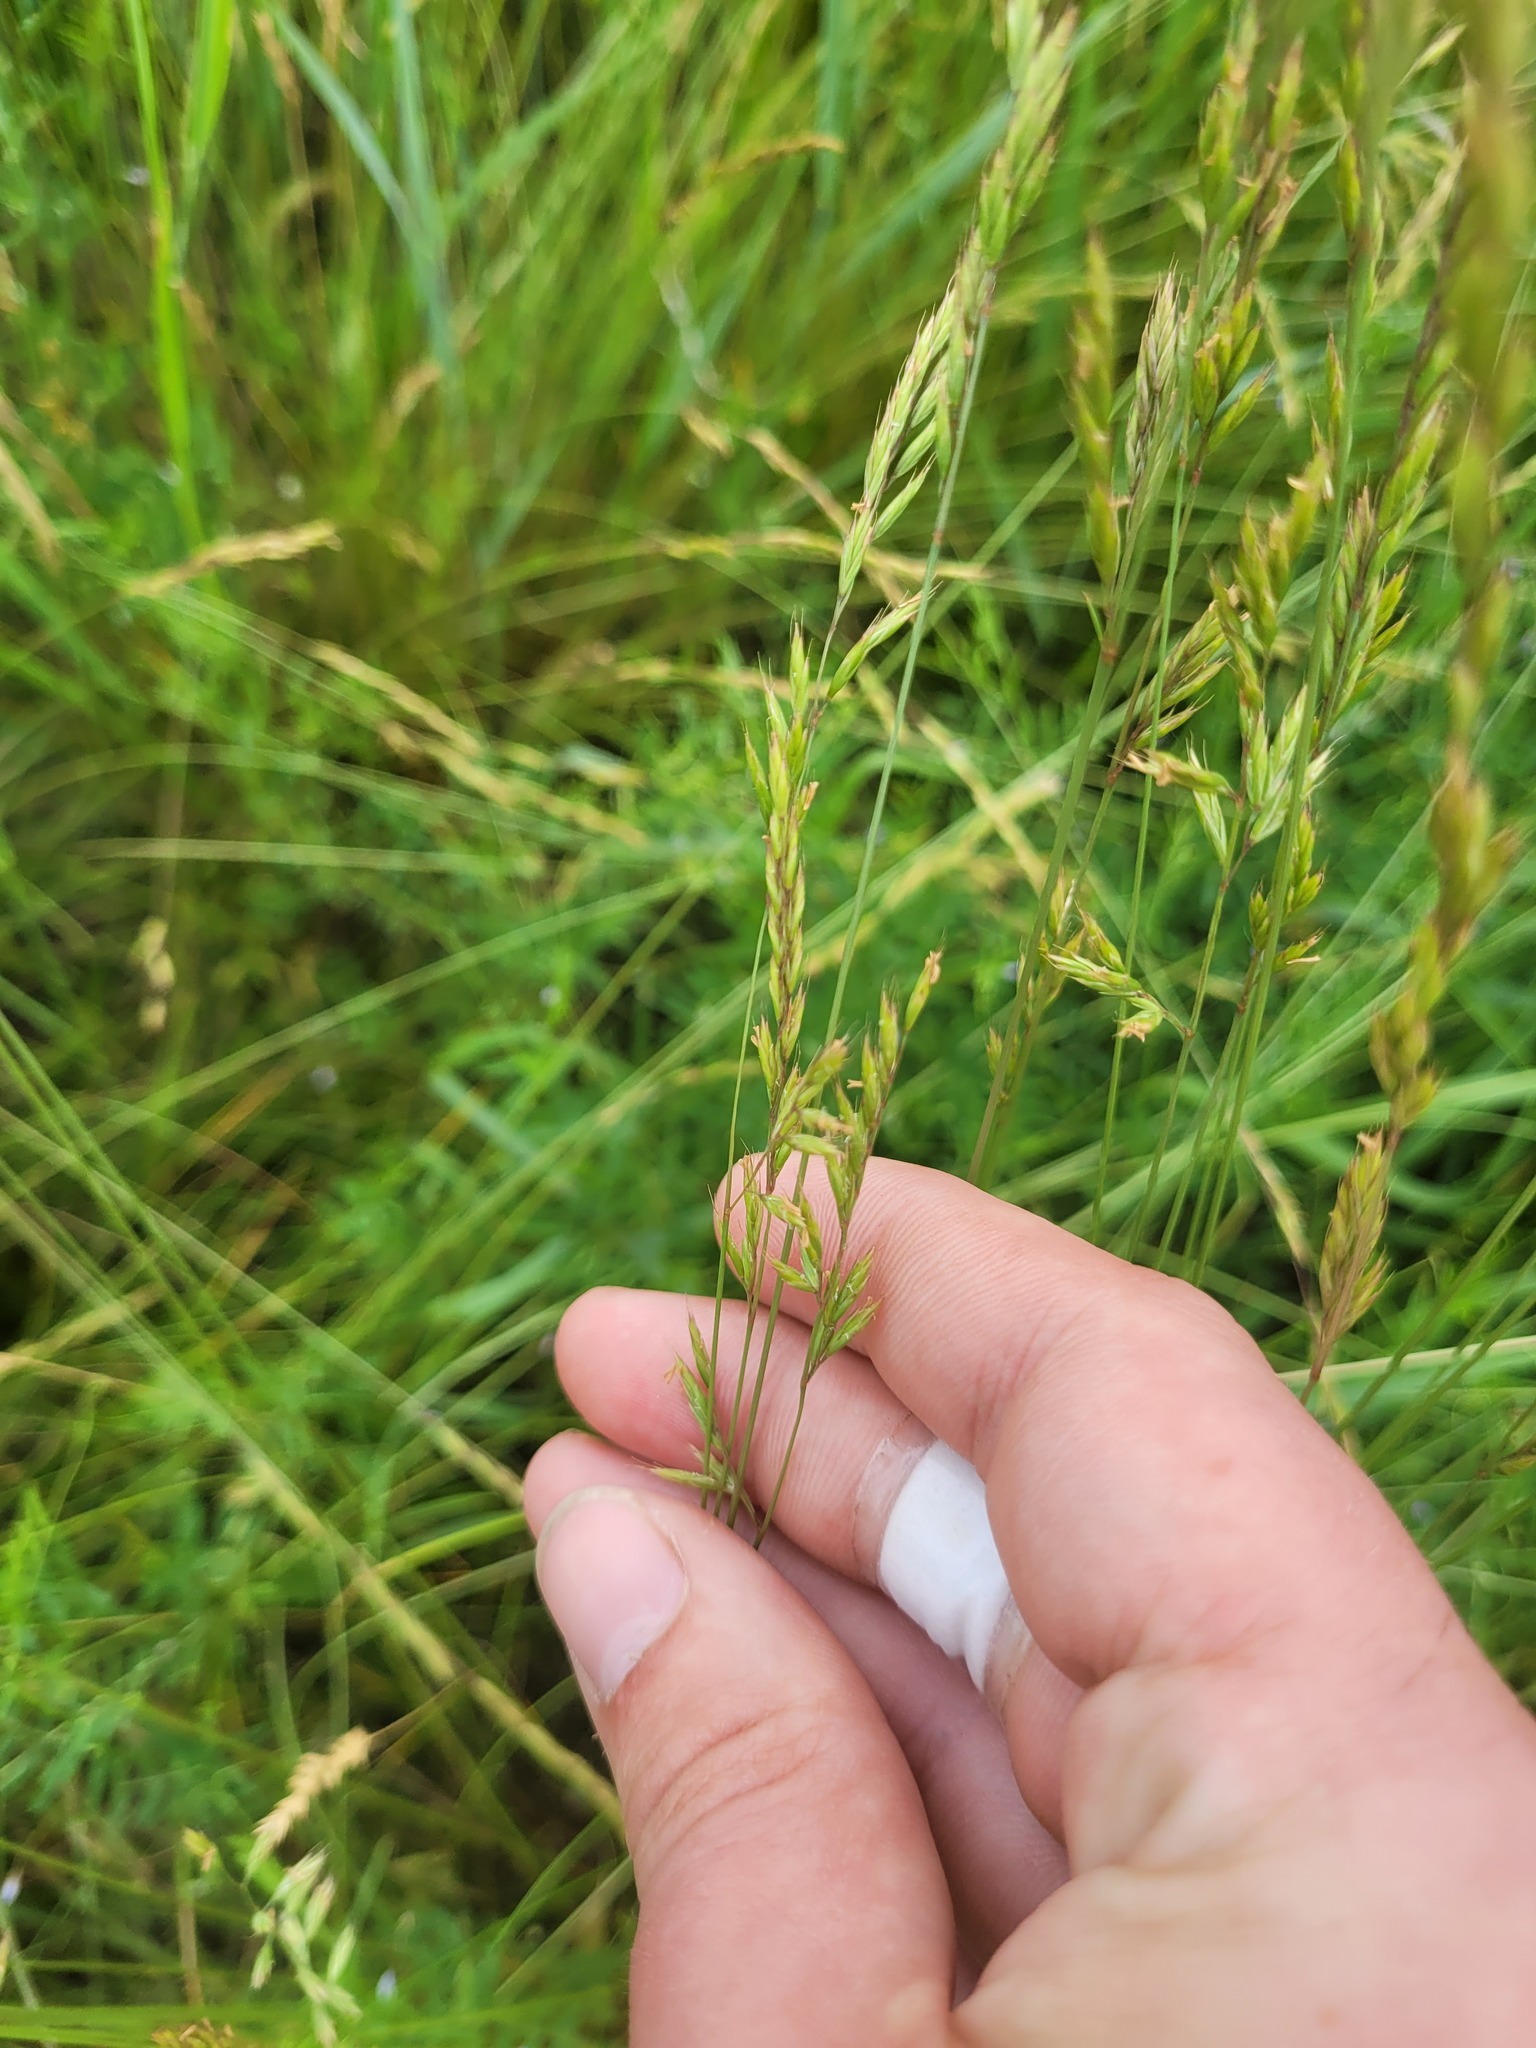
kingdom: Plantae
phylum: Tracheophyta
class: Liliopsida
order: Poales
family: Poaceae
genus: Festuca
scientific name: Festuca rupicola
